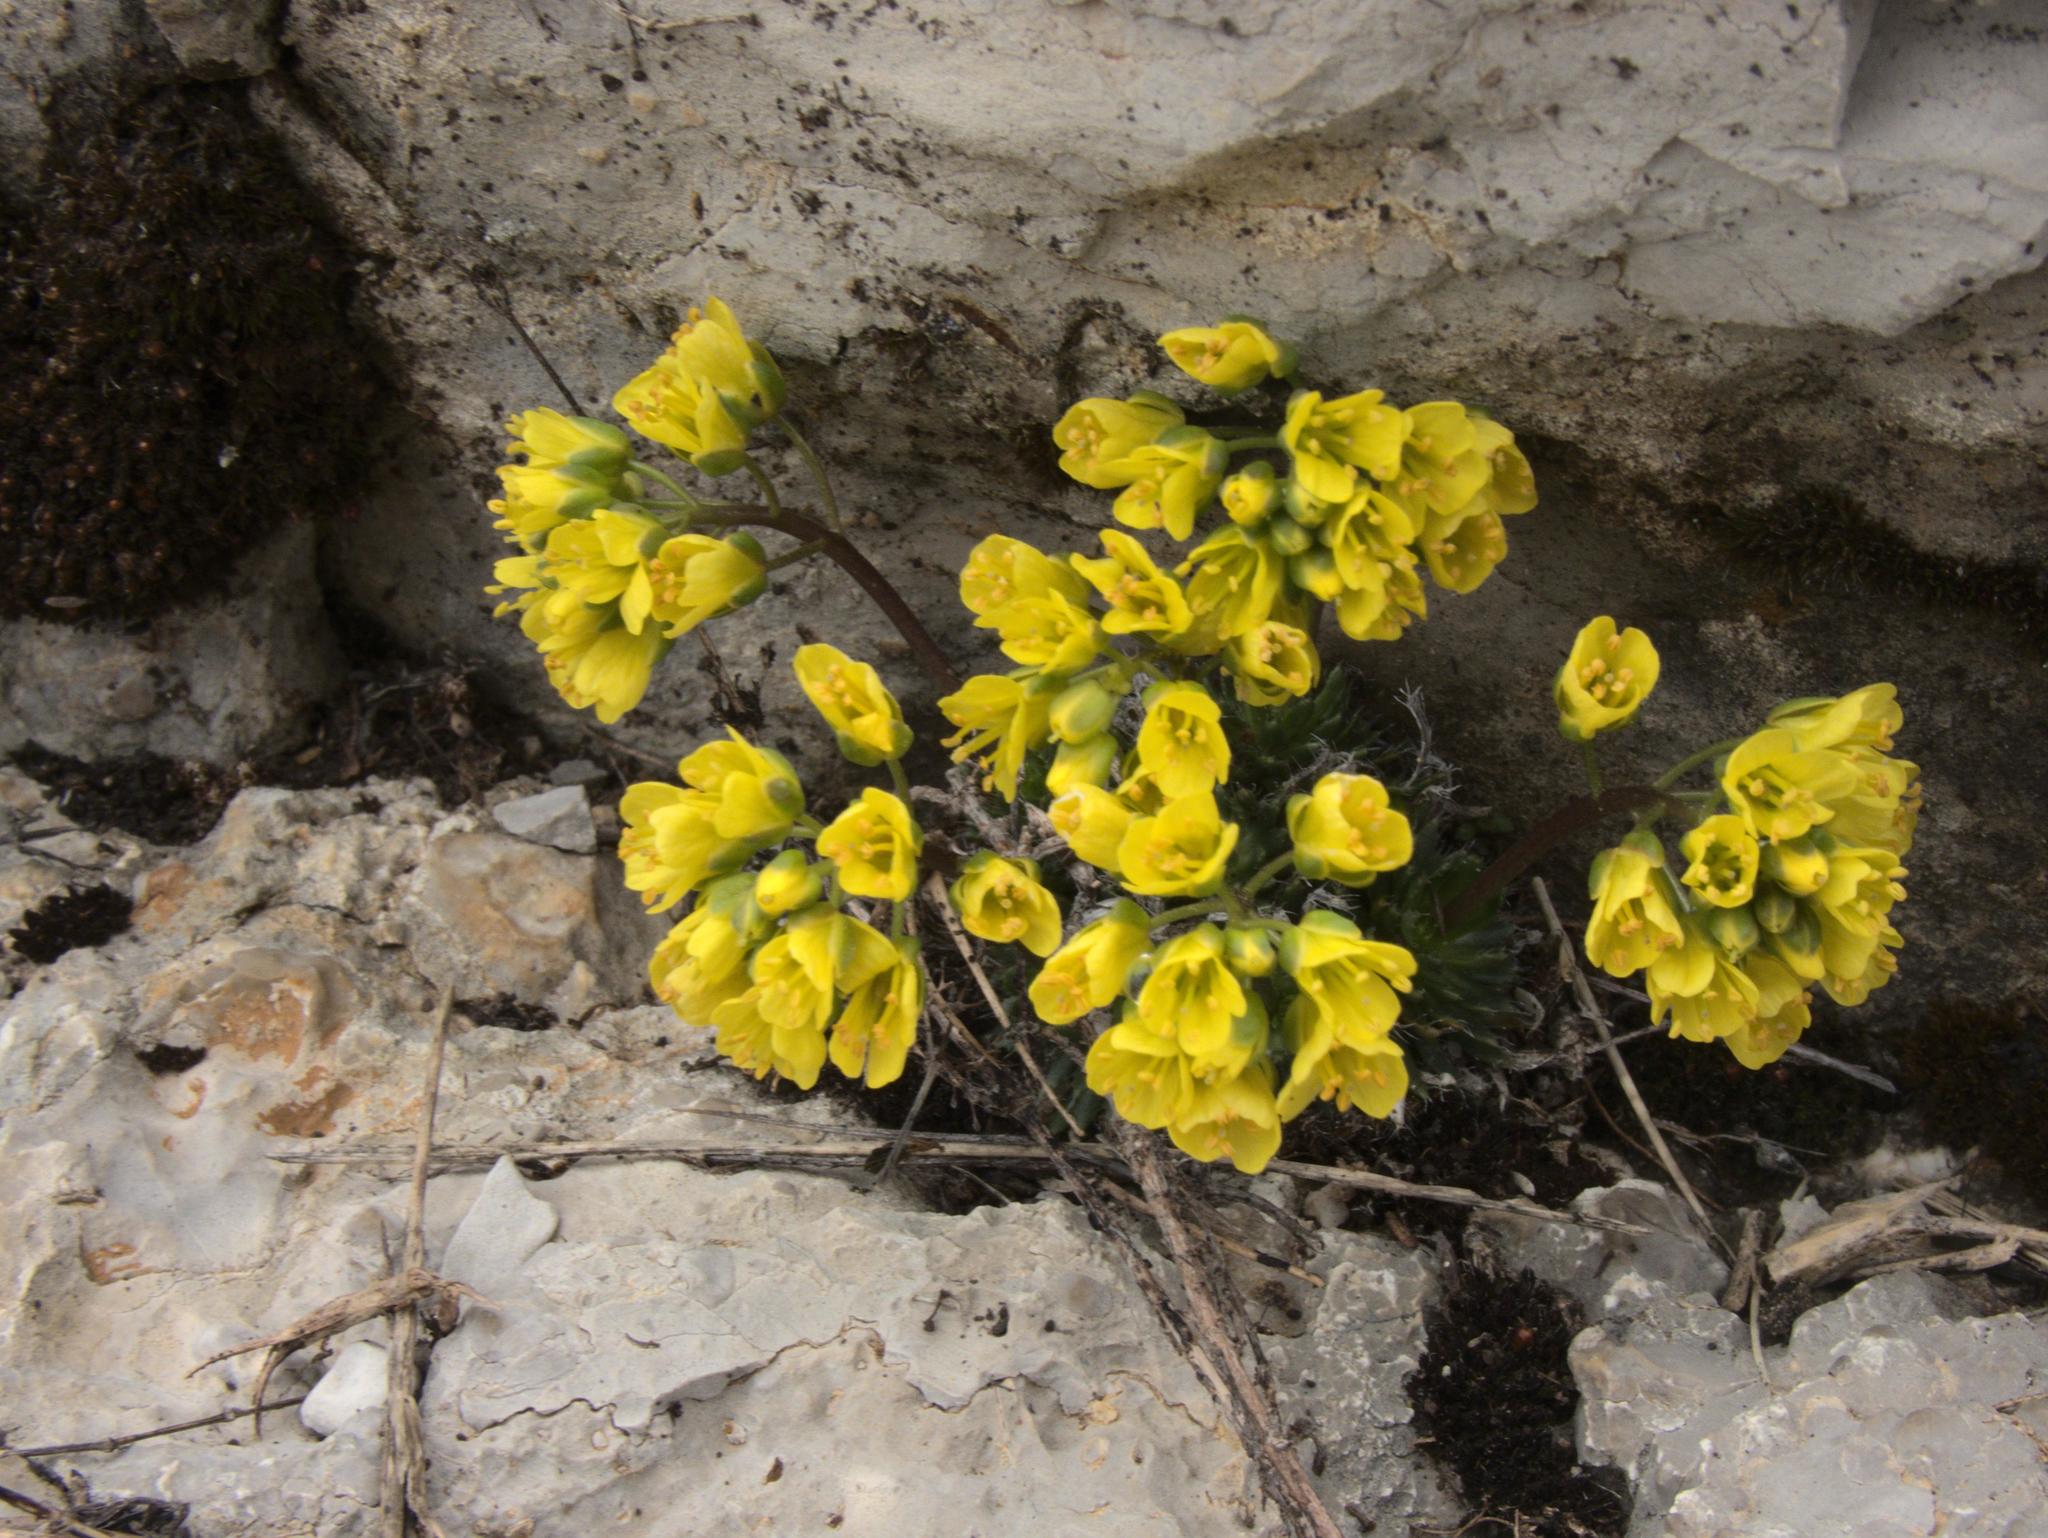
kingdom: Plantae
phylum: Tracheophyta
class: Magnoliopsida
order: Brassicales
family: Brassicaceae
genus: Draba
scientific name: Draba aizoides
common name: Yellow whitlowgrass
